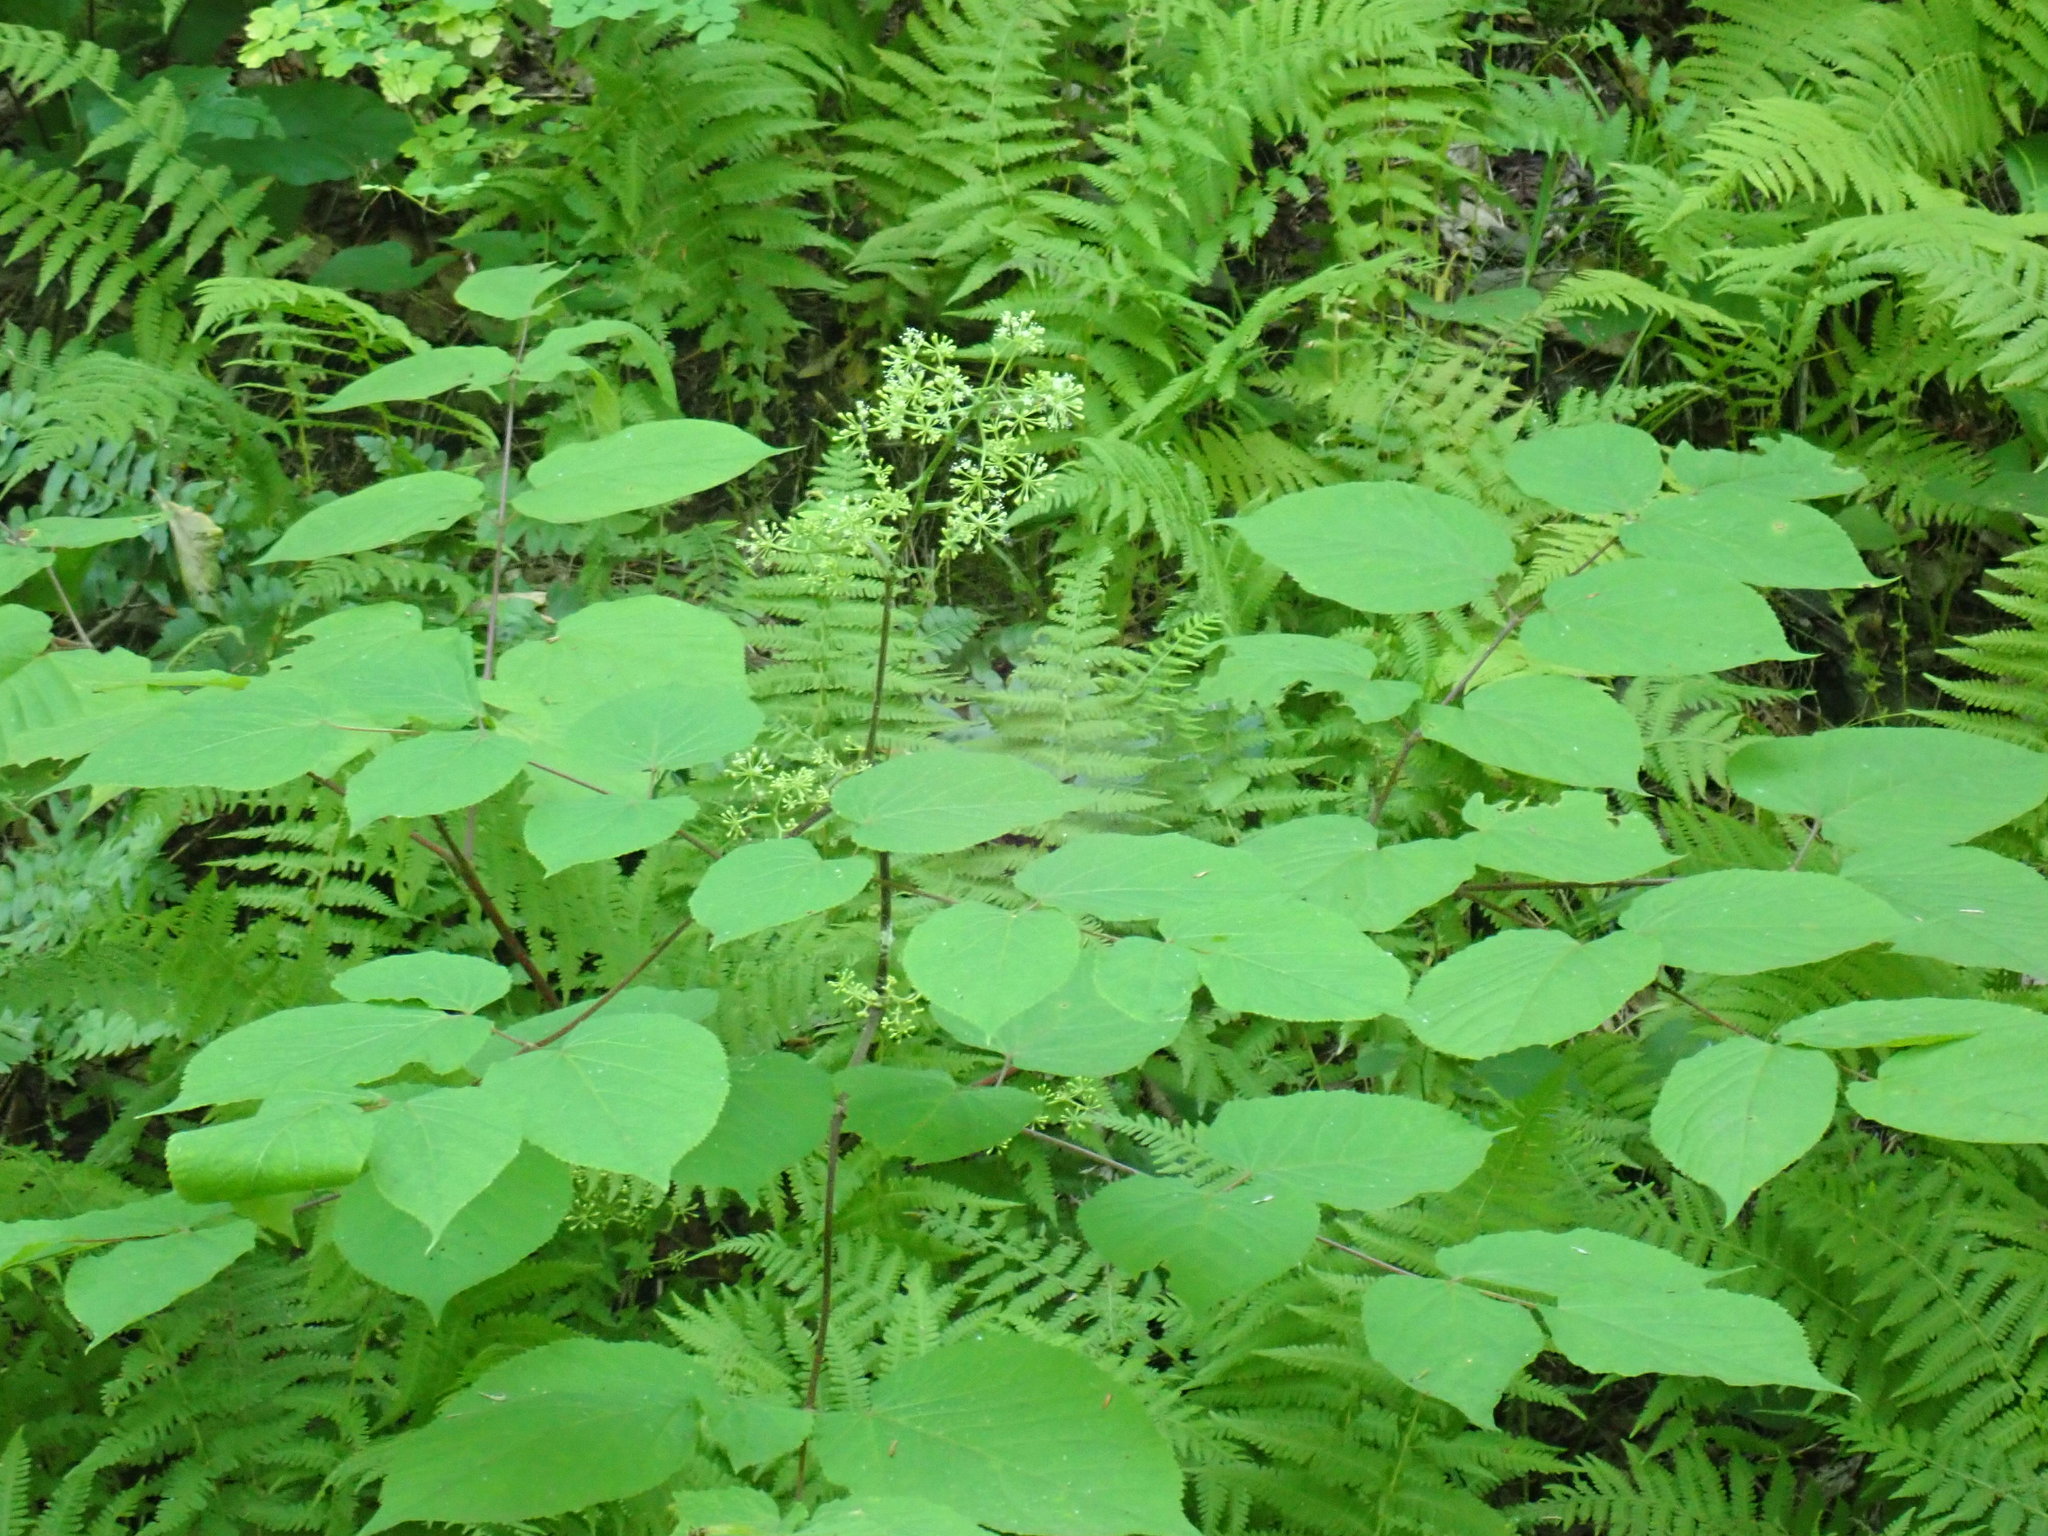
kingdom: Plantae
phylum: Tracheophyta
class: Magnoliopsida
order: Apiales
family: Araliaceae
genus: Aralia
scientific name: Aralia racemosa
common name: American-spikenard
